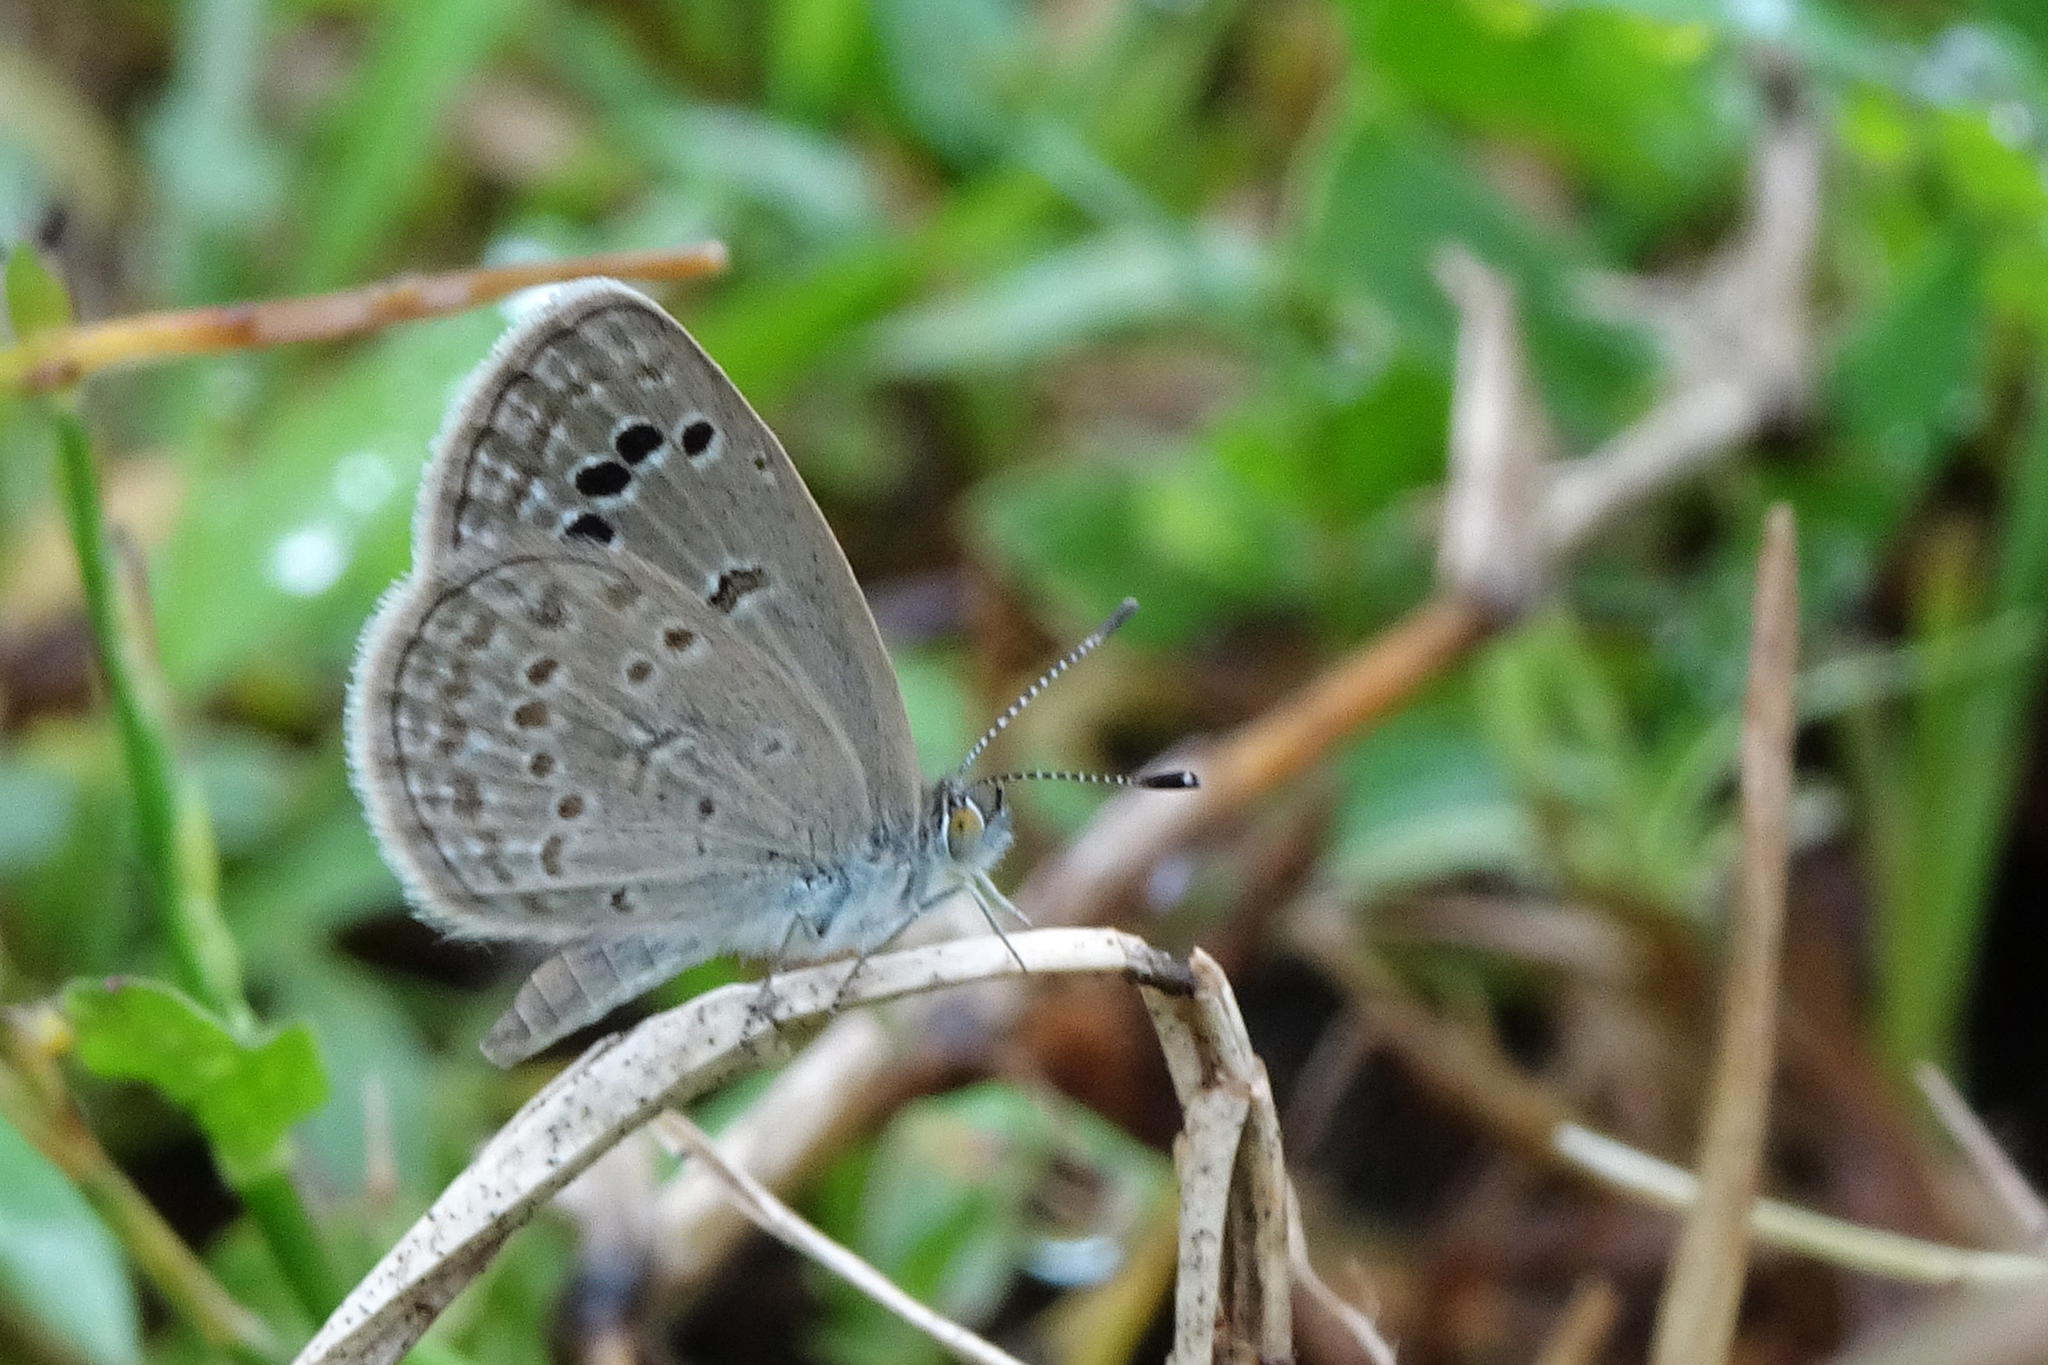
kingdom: Animalia
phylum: Arthropoda
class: Insecta
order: Lepidoptera
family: Lycaenidae
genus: Zizina
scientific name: Zizina otis
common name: Lesser grass blue
